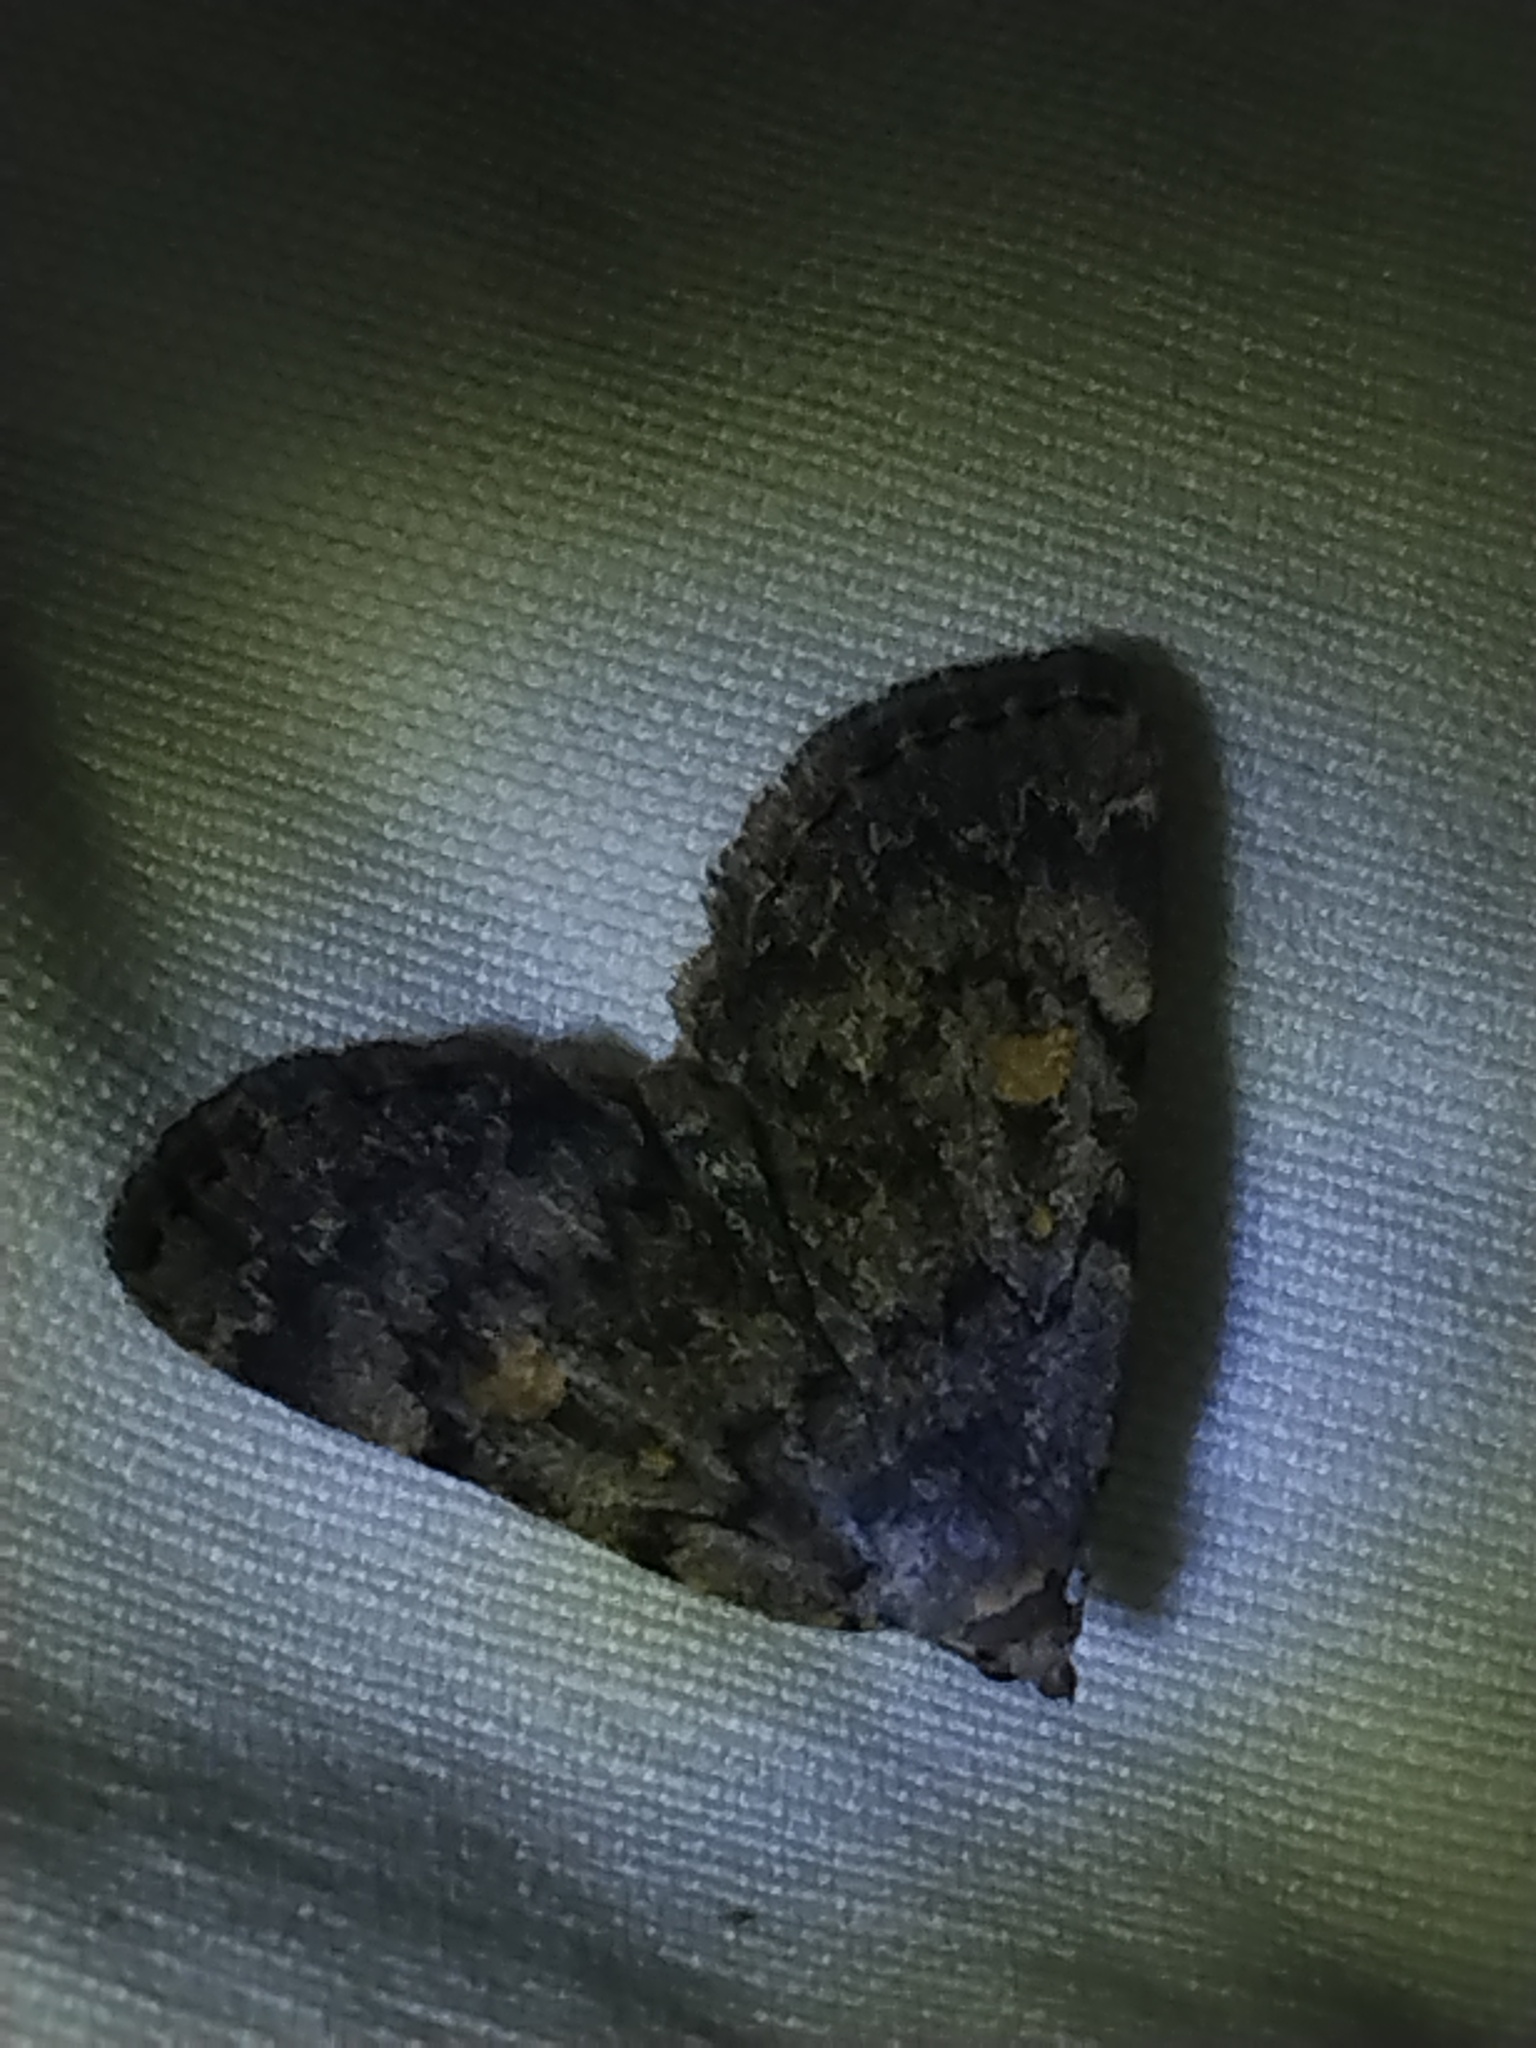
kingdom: Animalia
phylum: Arthropoda
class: Insecta
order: Lepidoptera
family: Erebidae
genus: Idia
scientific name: Idia aemula
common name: Common idia moth
